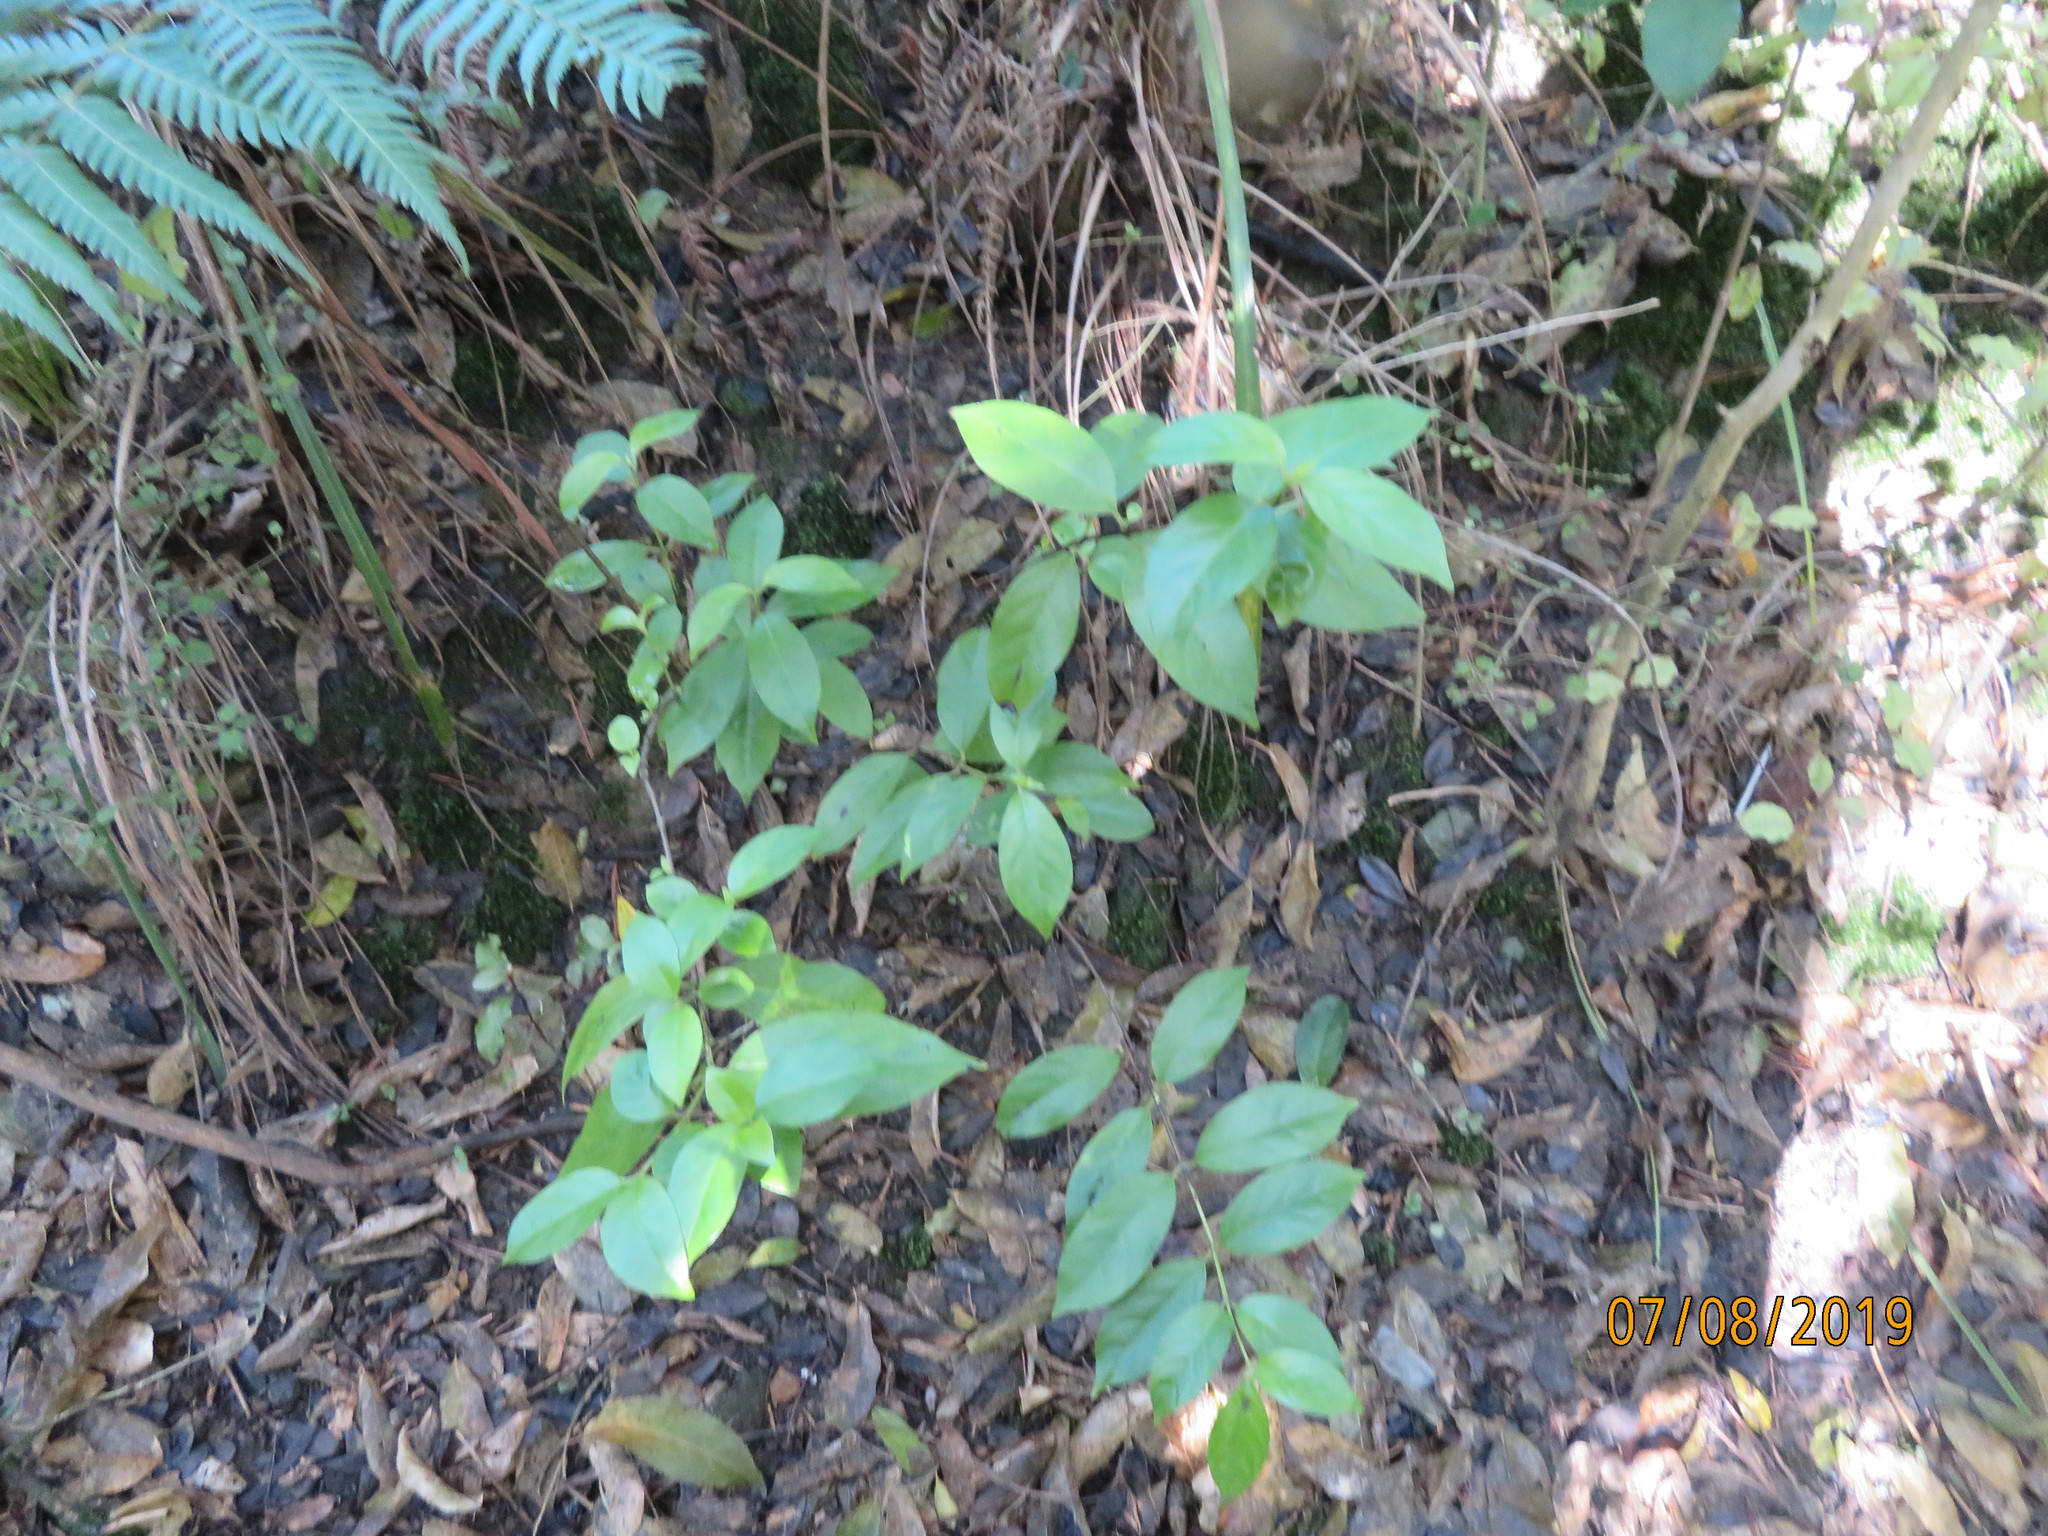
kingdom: Plantae
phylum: Tracheophyta
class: Magnoliopsida
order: Gentianales
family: Loganiaceae
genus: Geniostoma
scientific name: Geniostoma ligustrifolium
